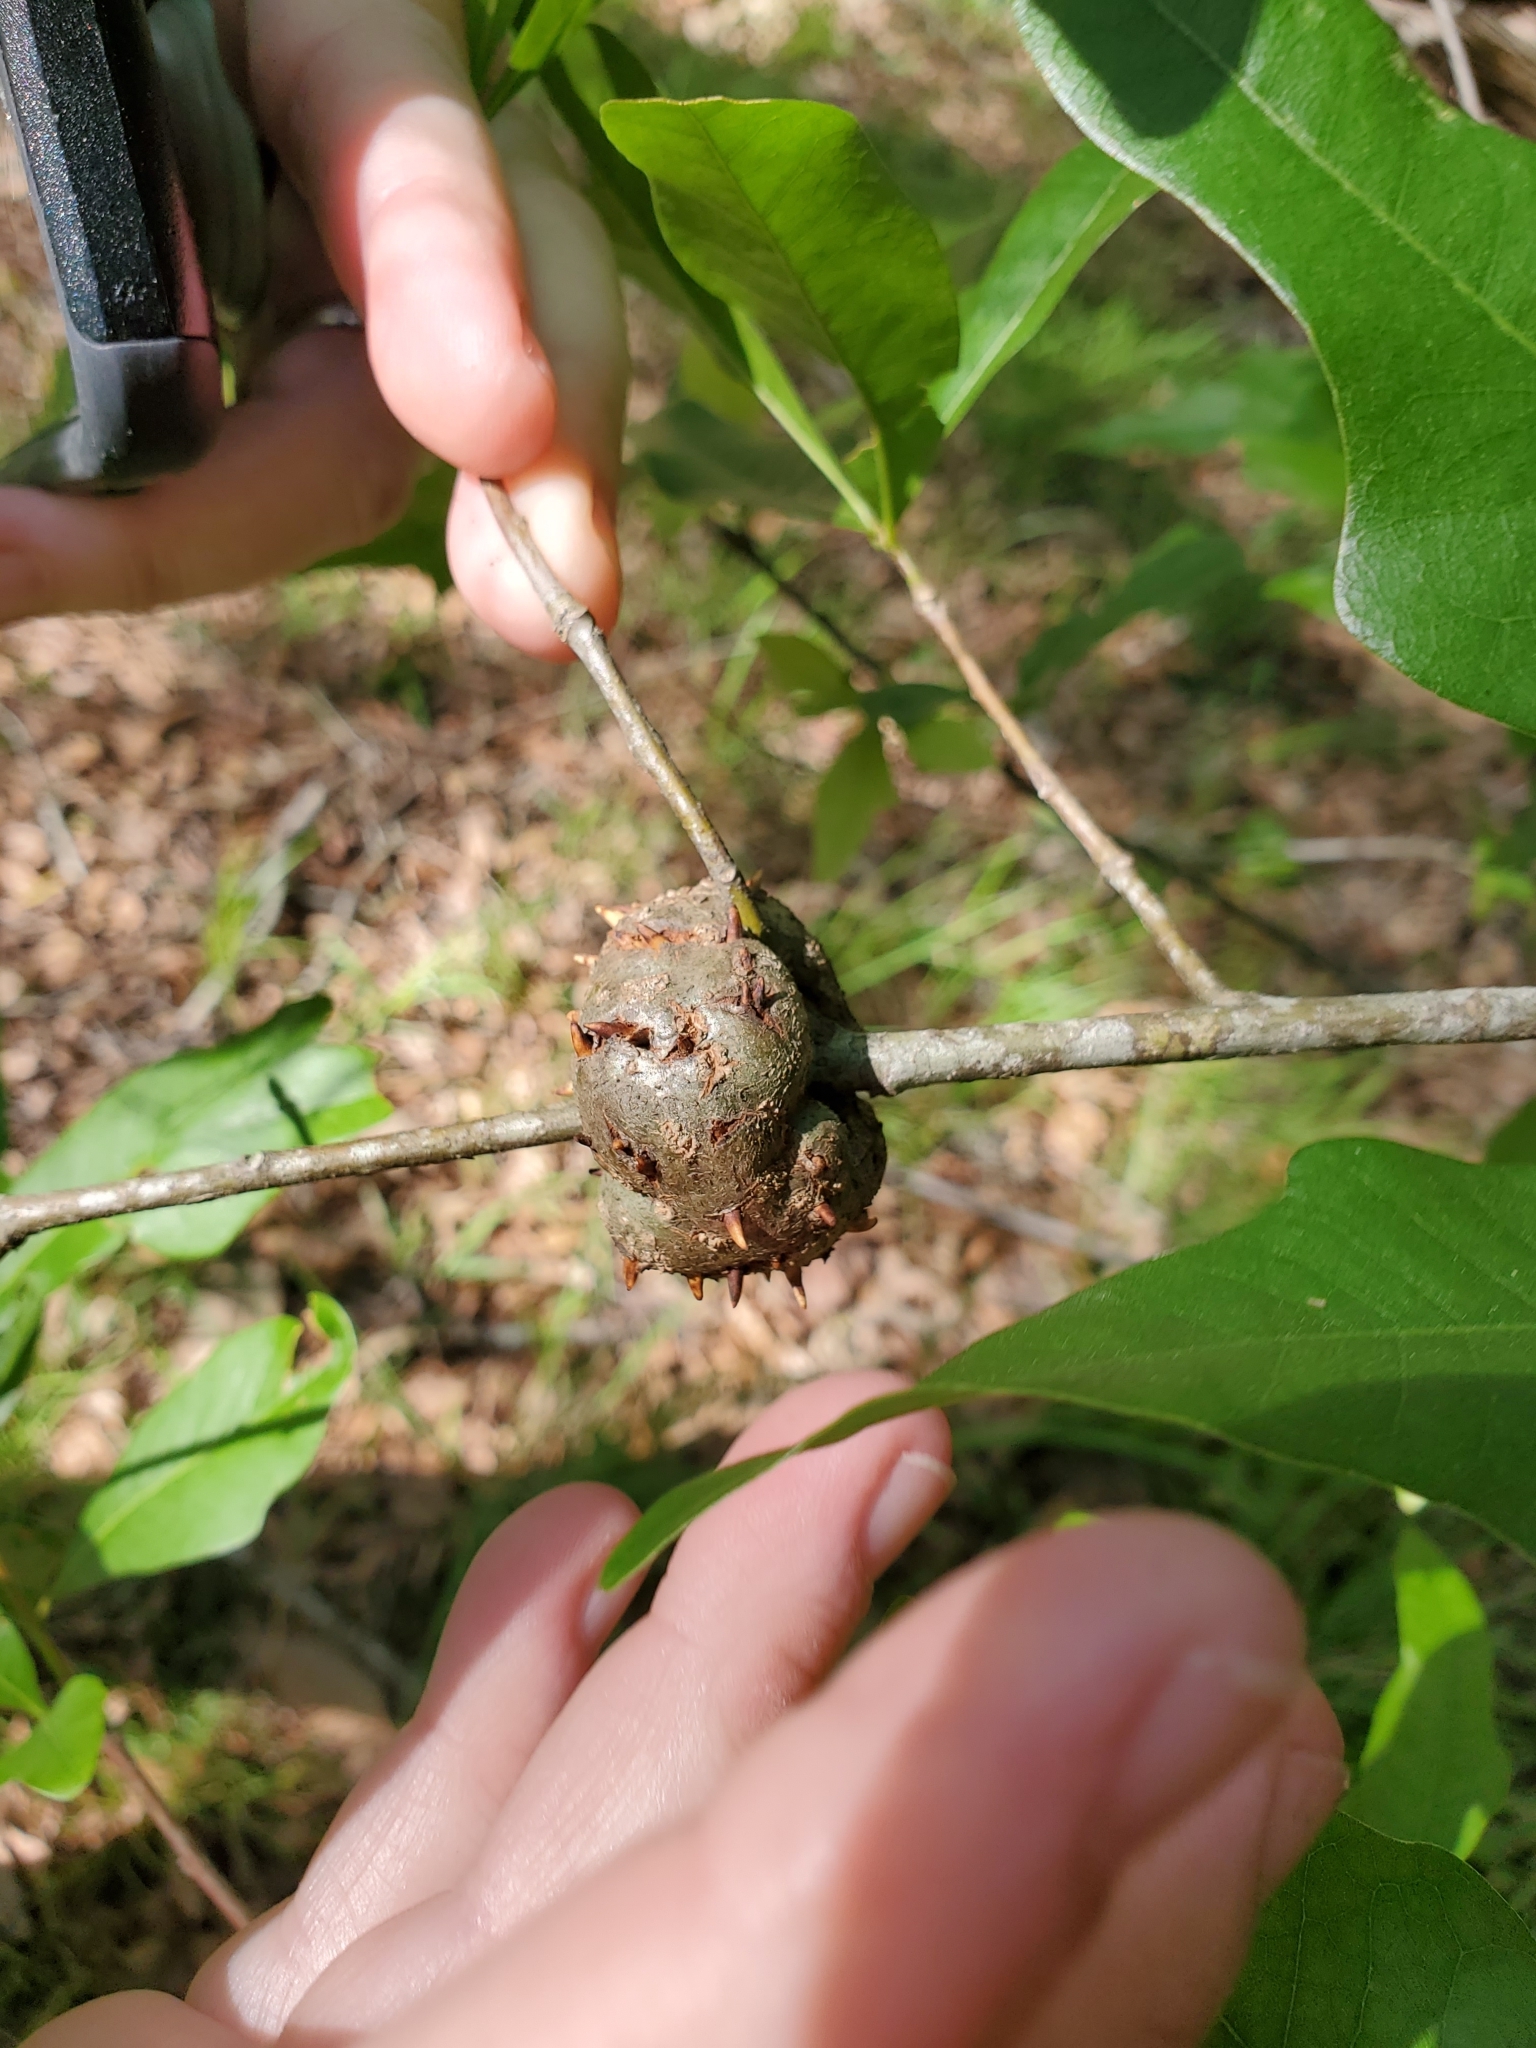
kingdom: Animalia
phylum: Arthropoda
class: Insecta
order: Hymenoptera
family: Cynipidae
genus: Callirhytis
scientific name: Callirhytis
